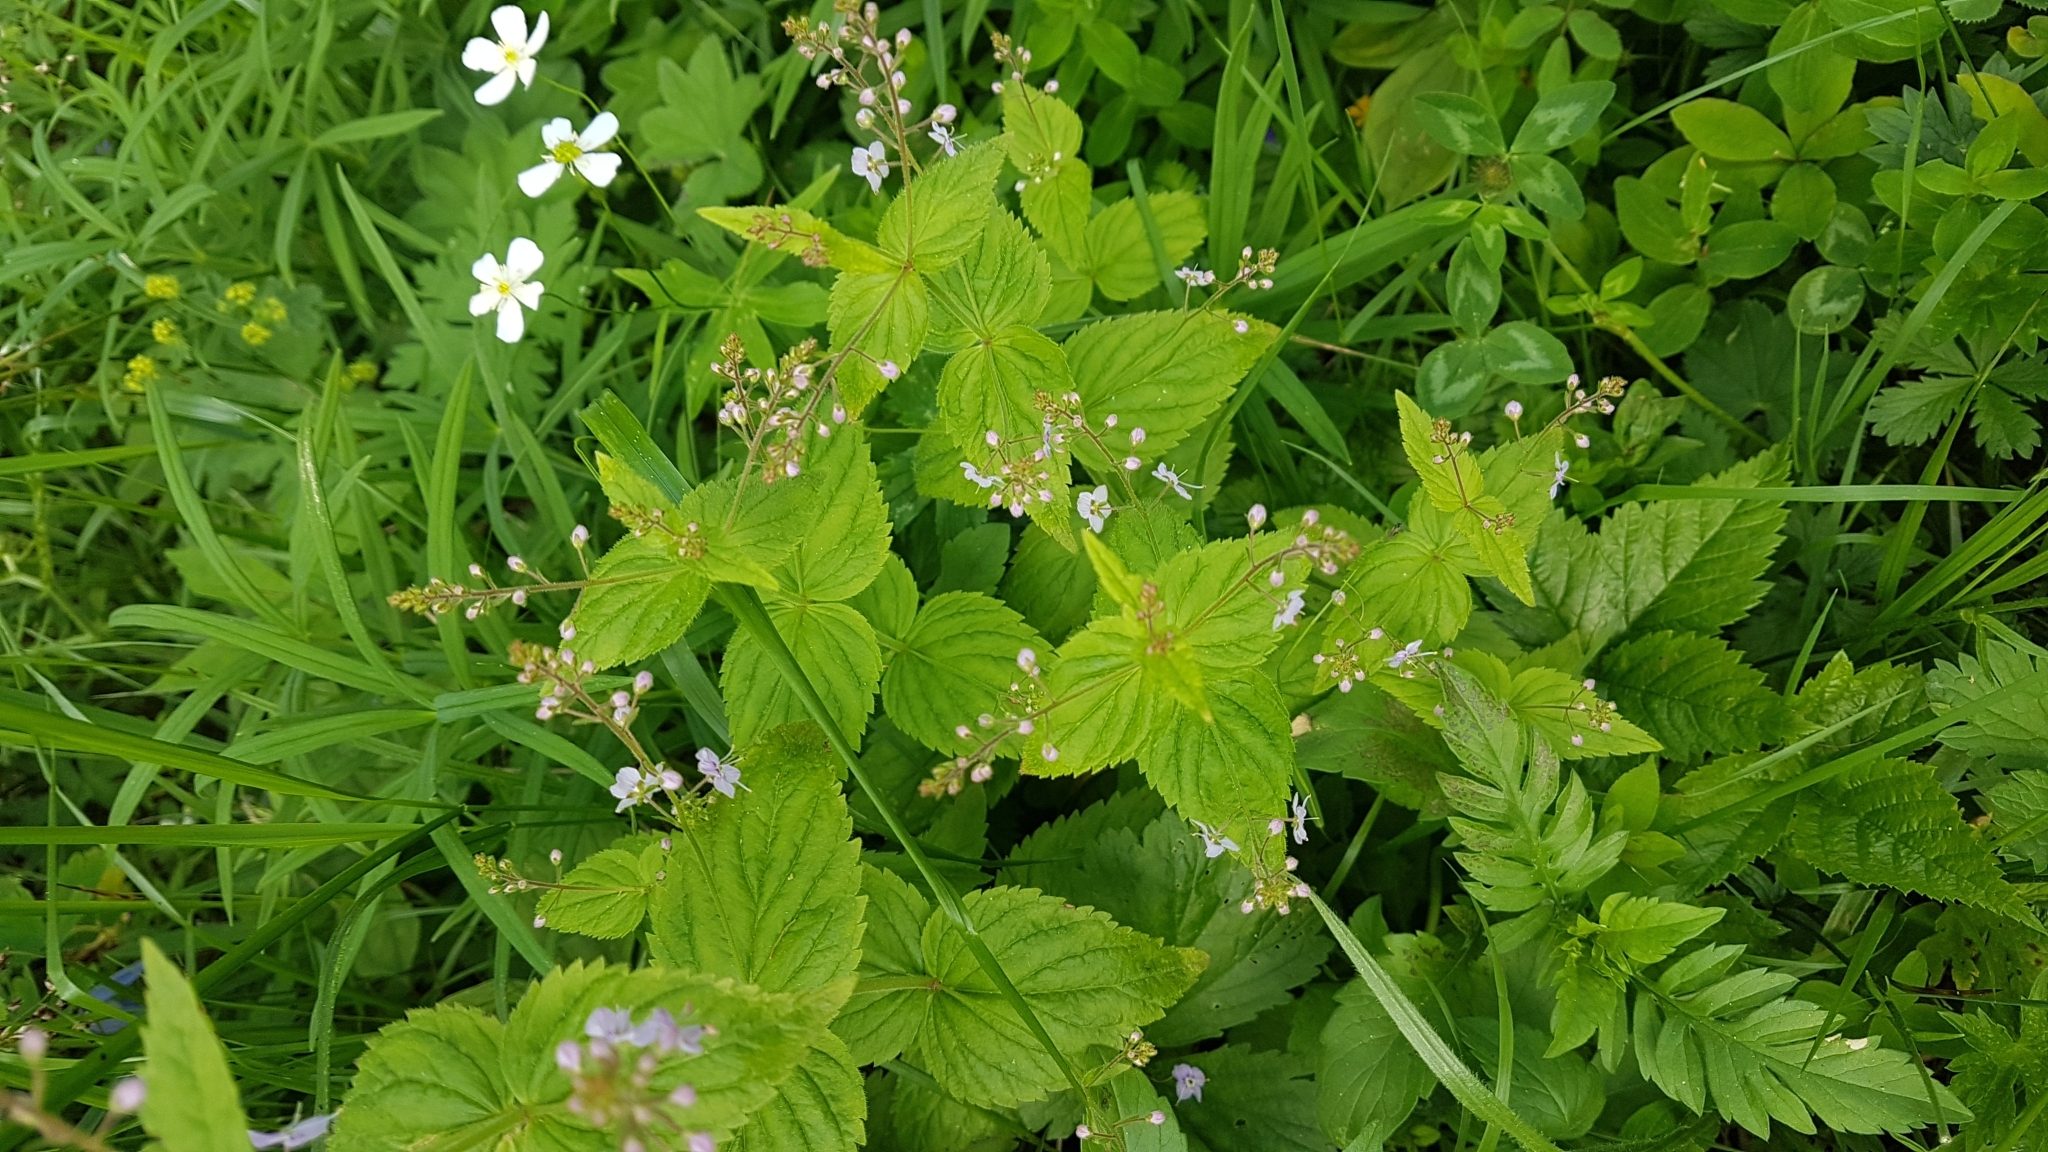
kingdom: Plantae
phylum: Tracheophyta
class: Magnoliopsida
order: Lamiales
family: Plantaginaceae
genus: Veronica
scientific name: Veronica urticifolia
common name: Nettle-leaf speedwell
